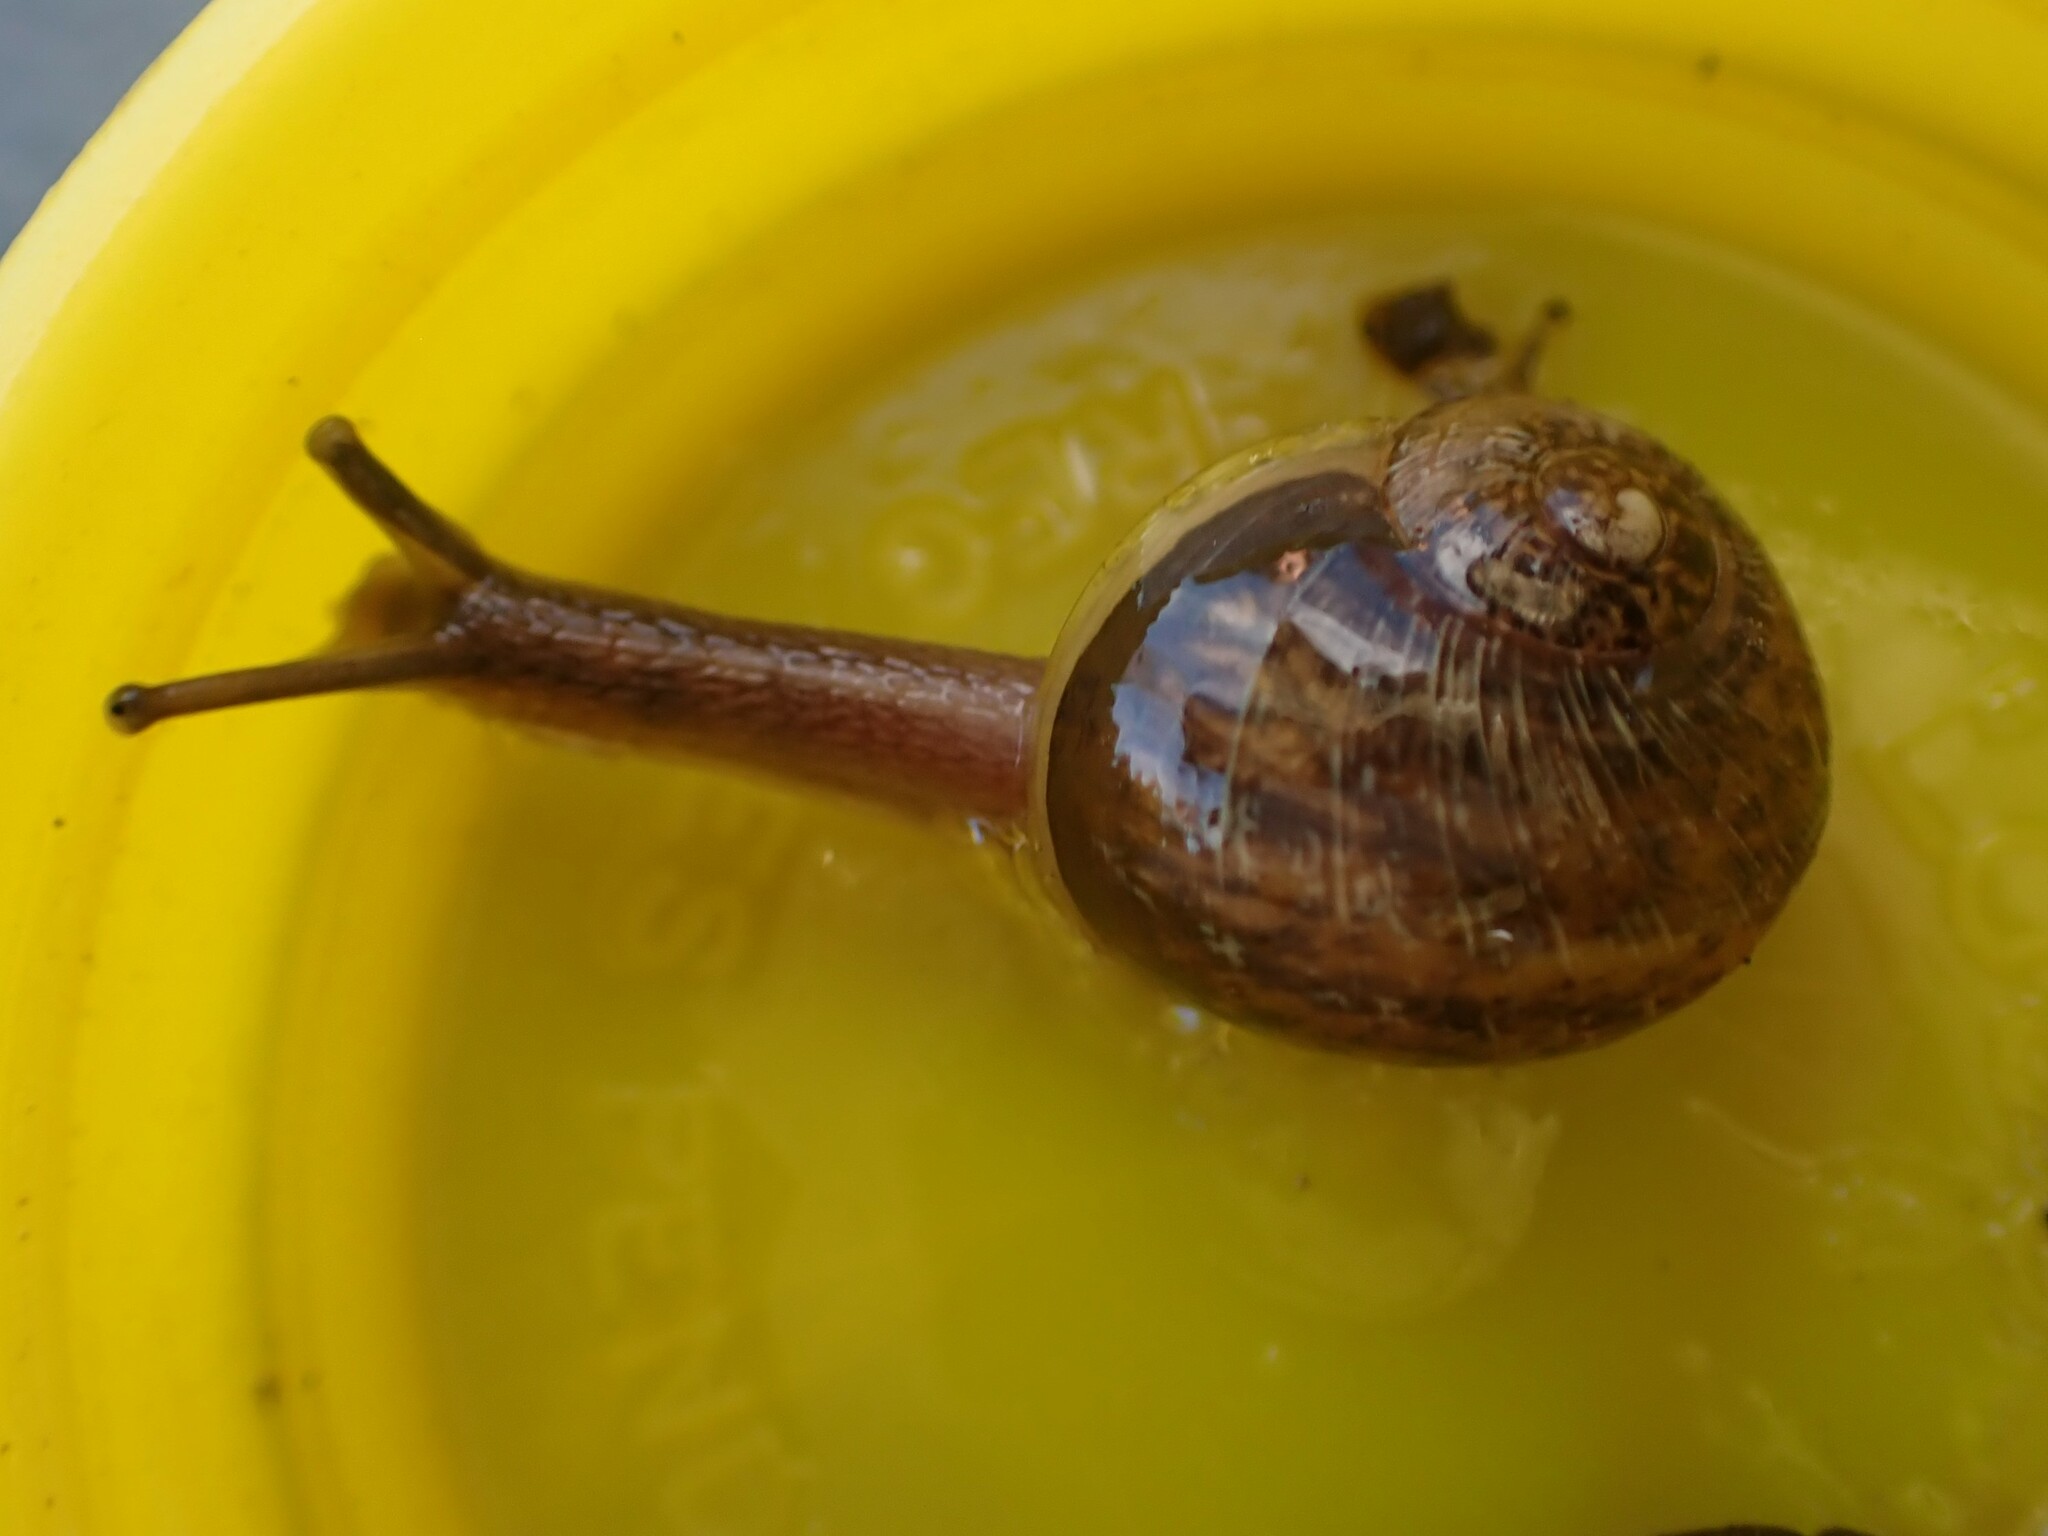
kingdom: Animalia
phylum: Mollusca
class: Gastropoda
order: Stylommatophora
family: Helicidae
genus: Cornu
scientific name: Cornu aspersum
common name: Brown garden snail
